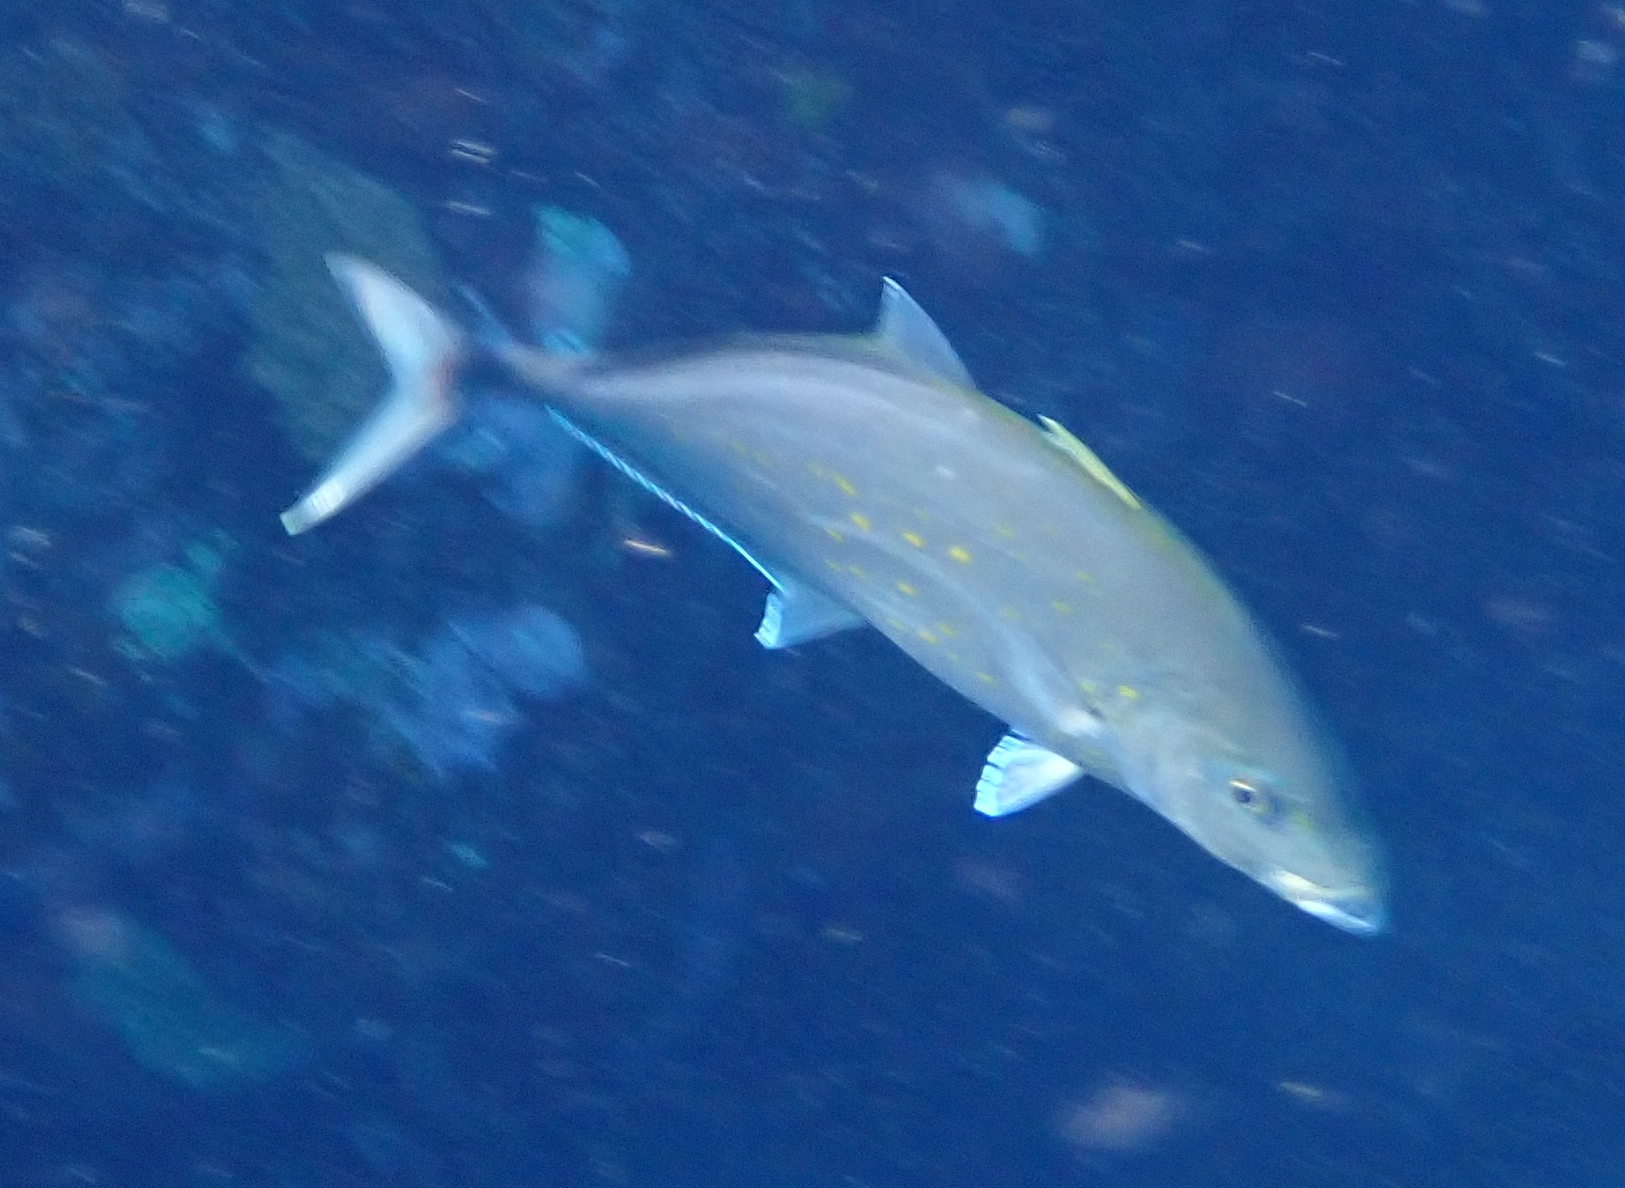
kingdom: Animalia
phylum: Chordata
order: Perciformes
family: Carangidae
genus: Flavocaranx
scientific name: Flavocaranx bajad
